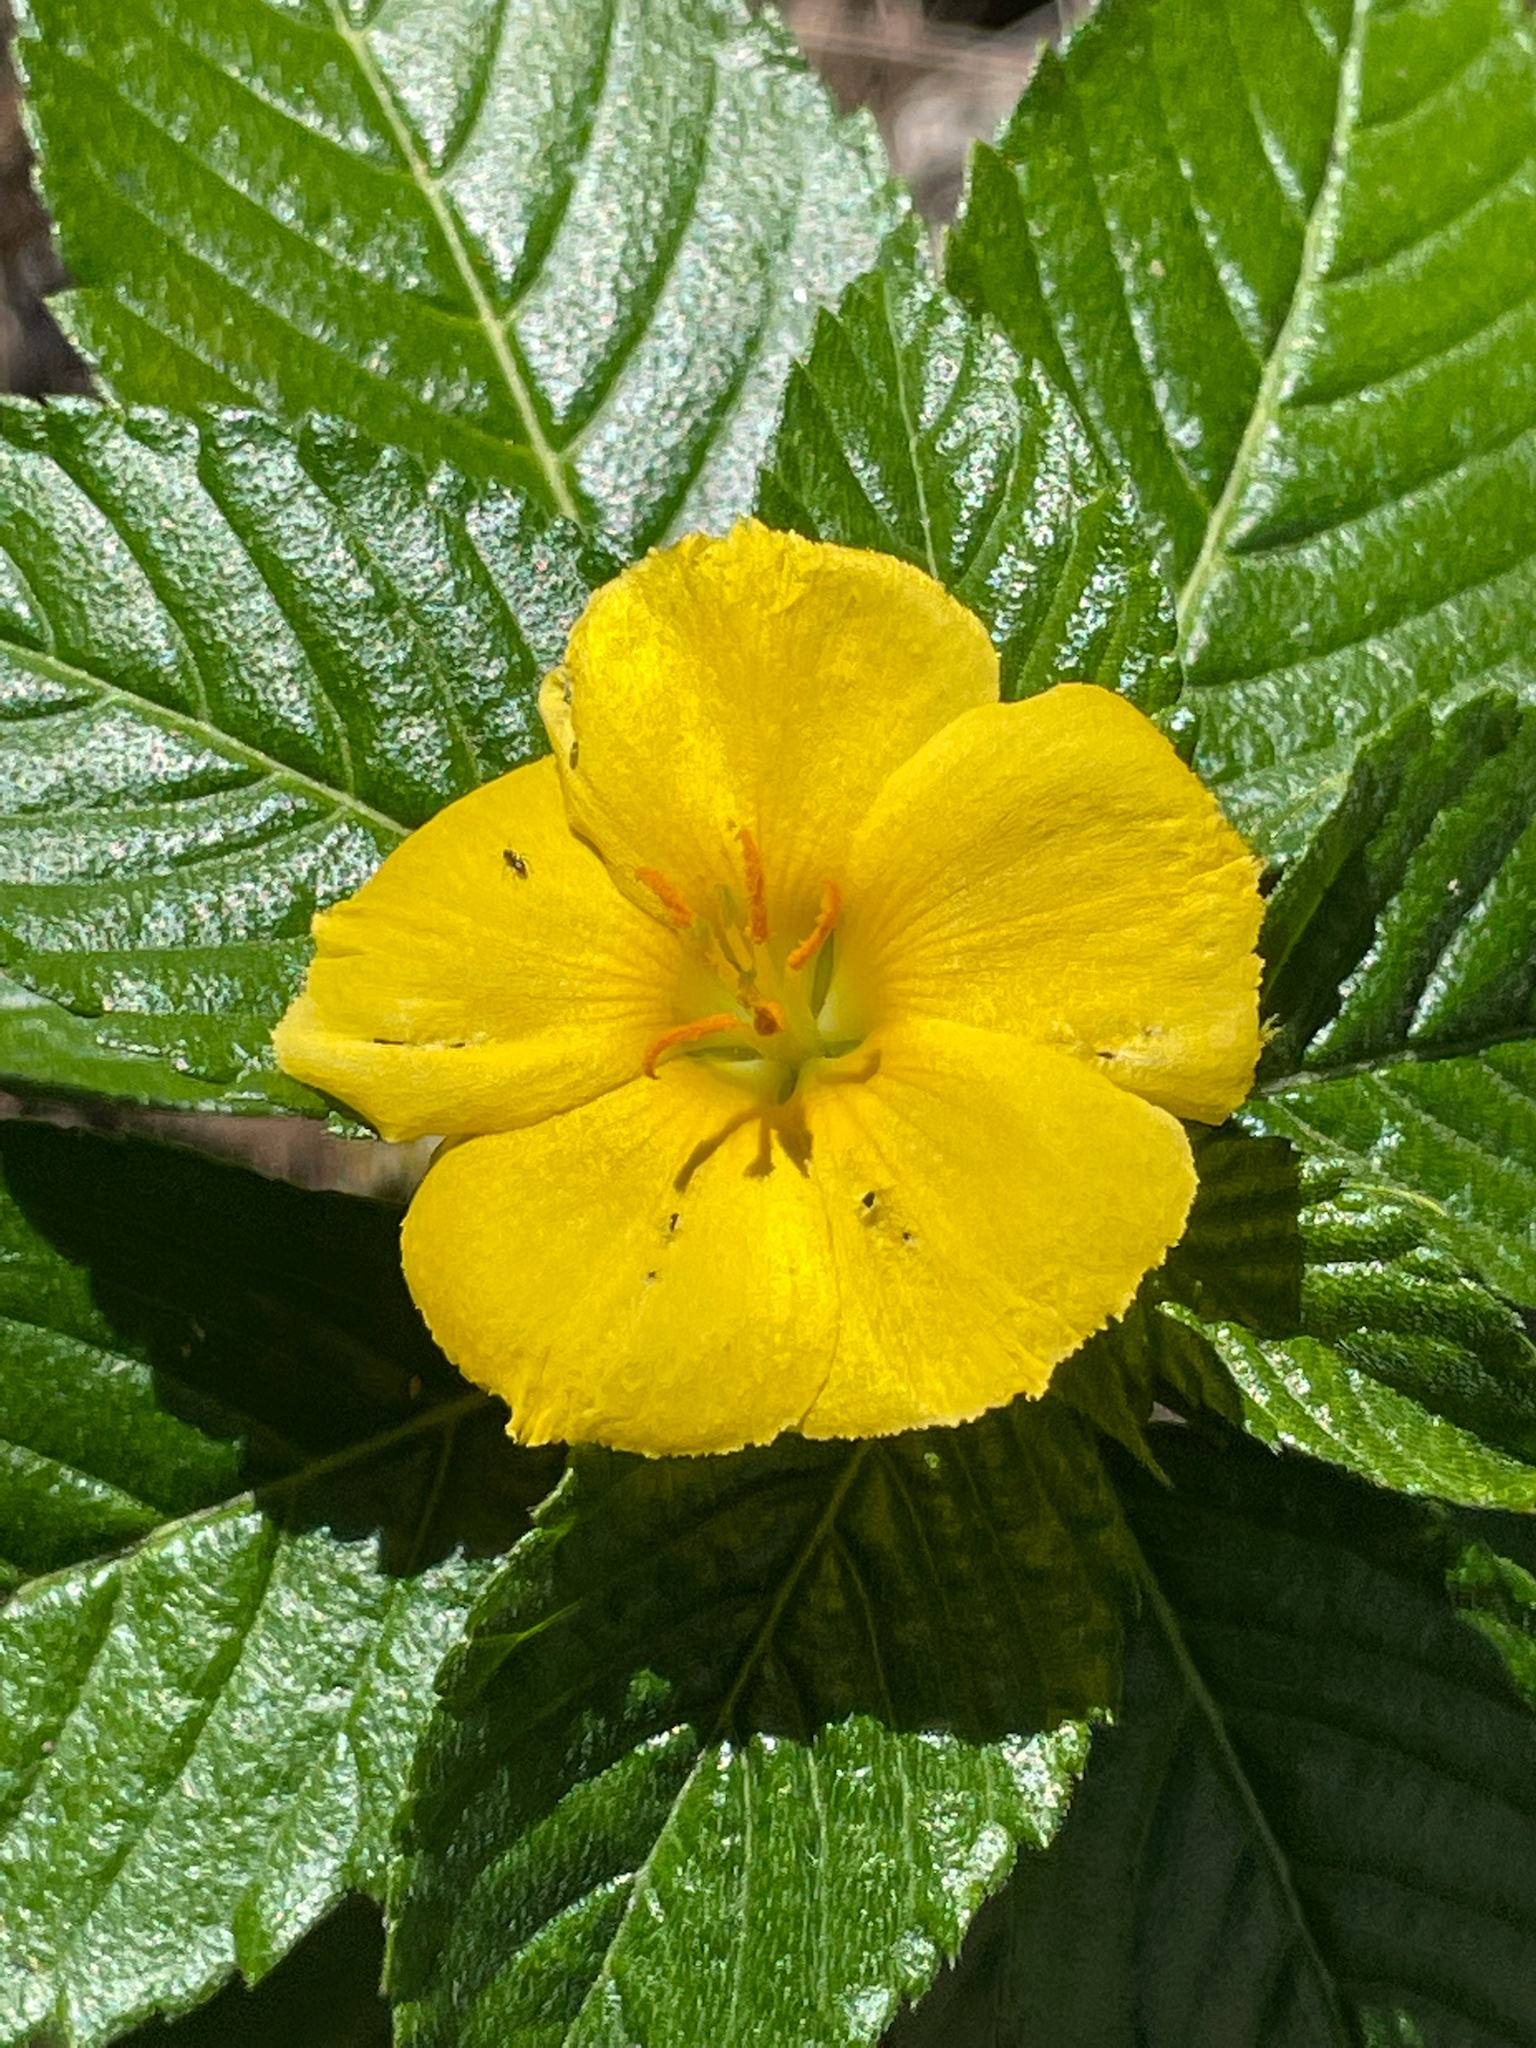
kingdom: Plantae
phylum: Tracheophyta
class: Magnoliopsida
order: Malpighiales
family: Turneraceae
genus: Turnera
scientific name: Turnera ulmifolia
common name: Ramgoat dashalong
